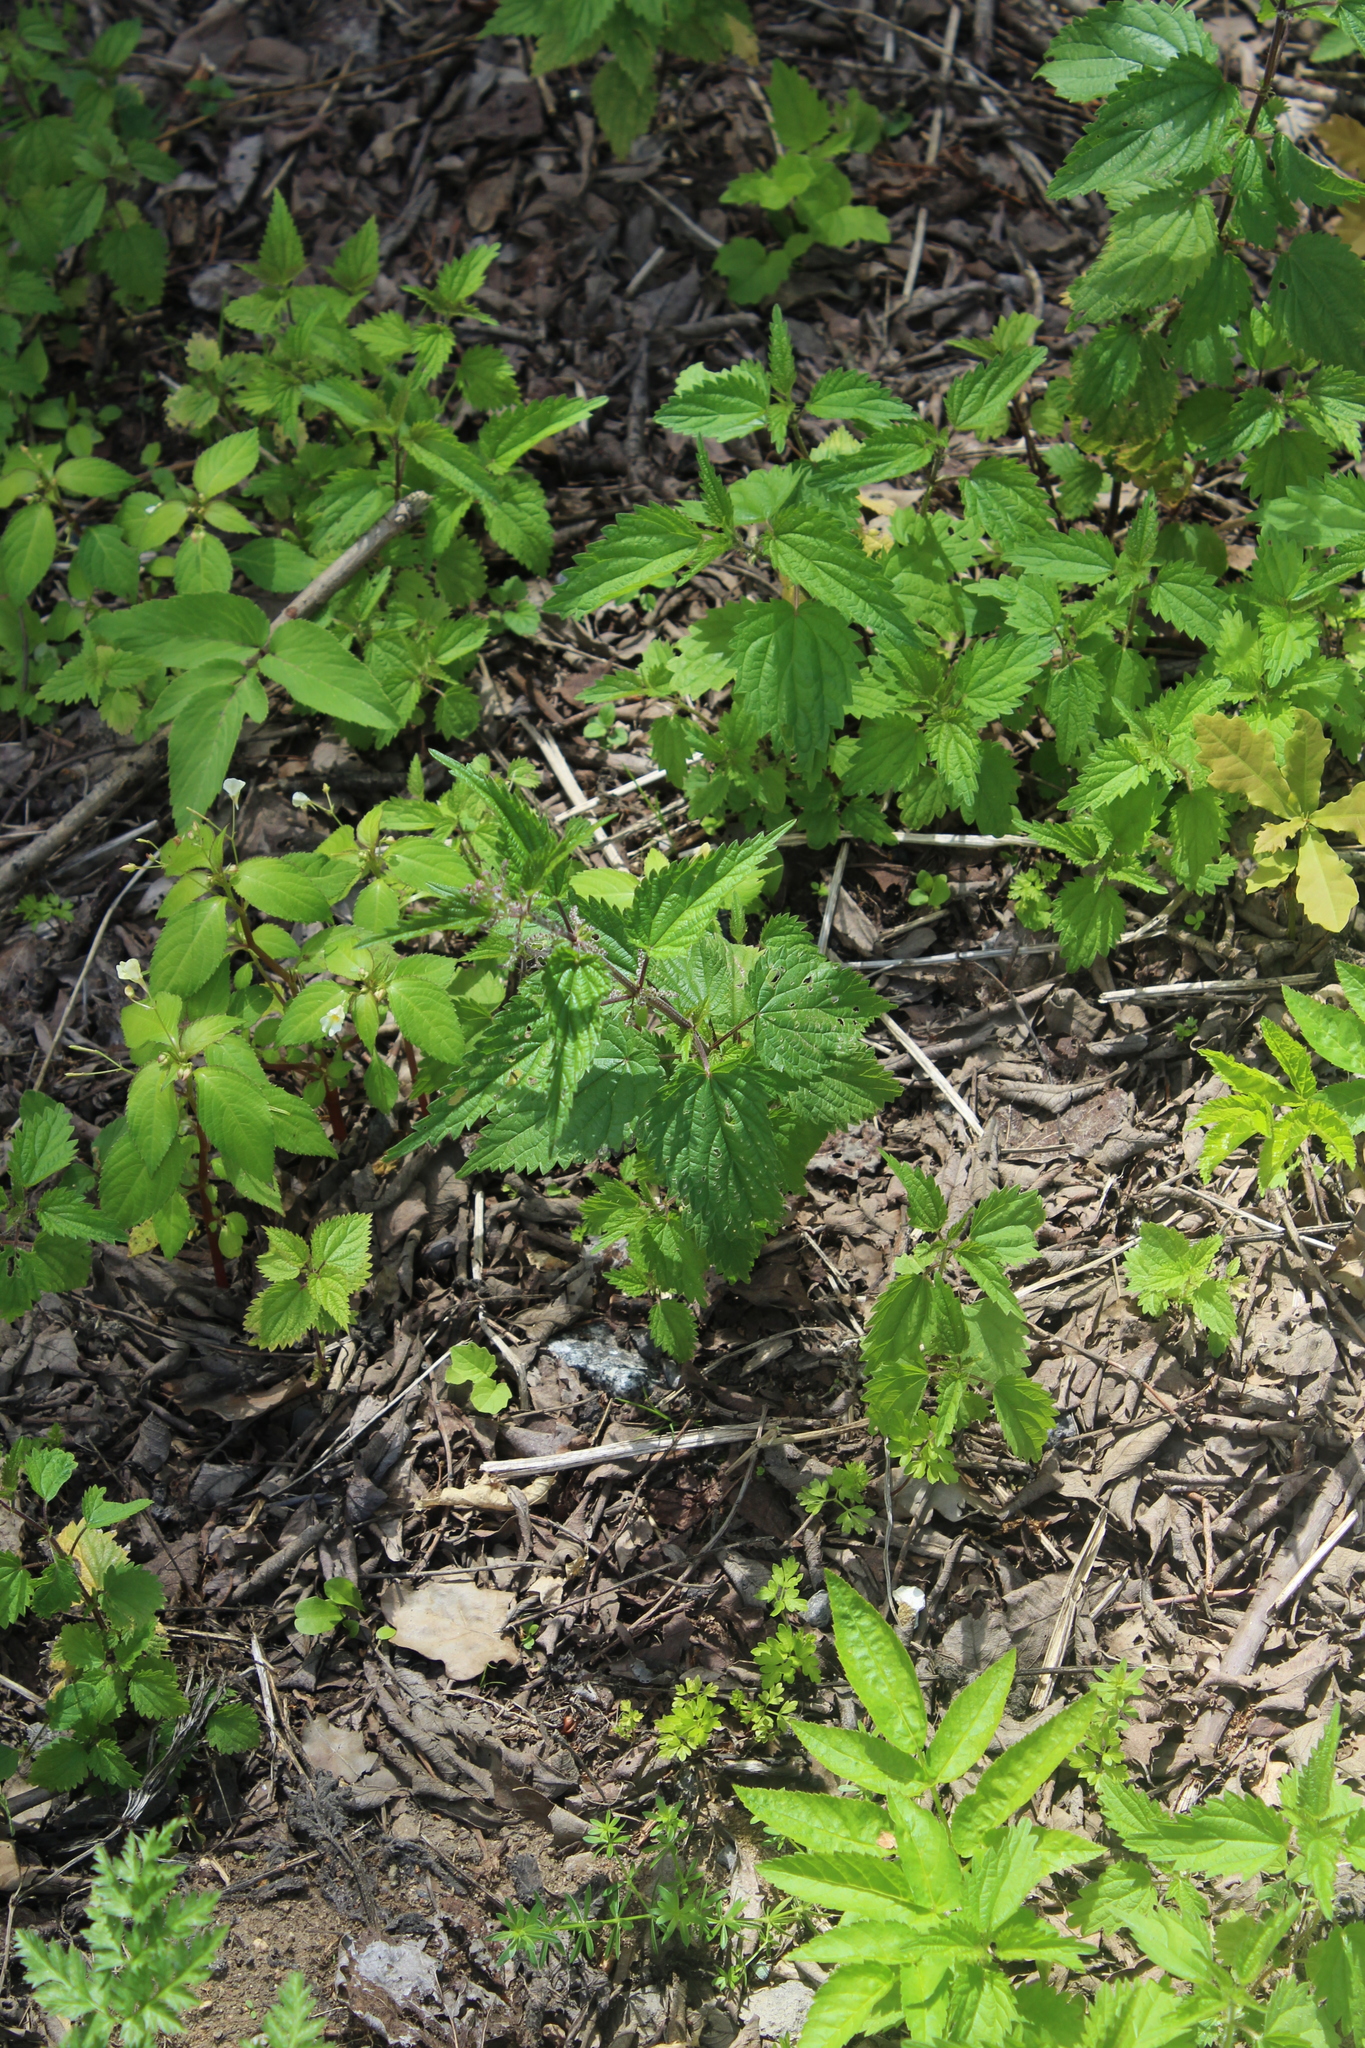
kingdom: Plantae
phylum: Tracheophyta
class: Magnoliopsida
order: Rosales
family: Urticaceae
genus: Urtica
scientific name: Urtica dioica
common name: Common nettle
